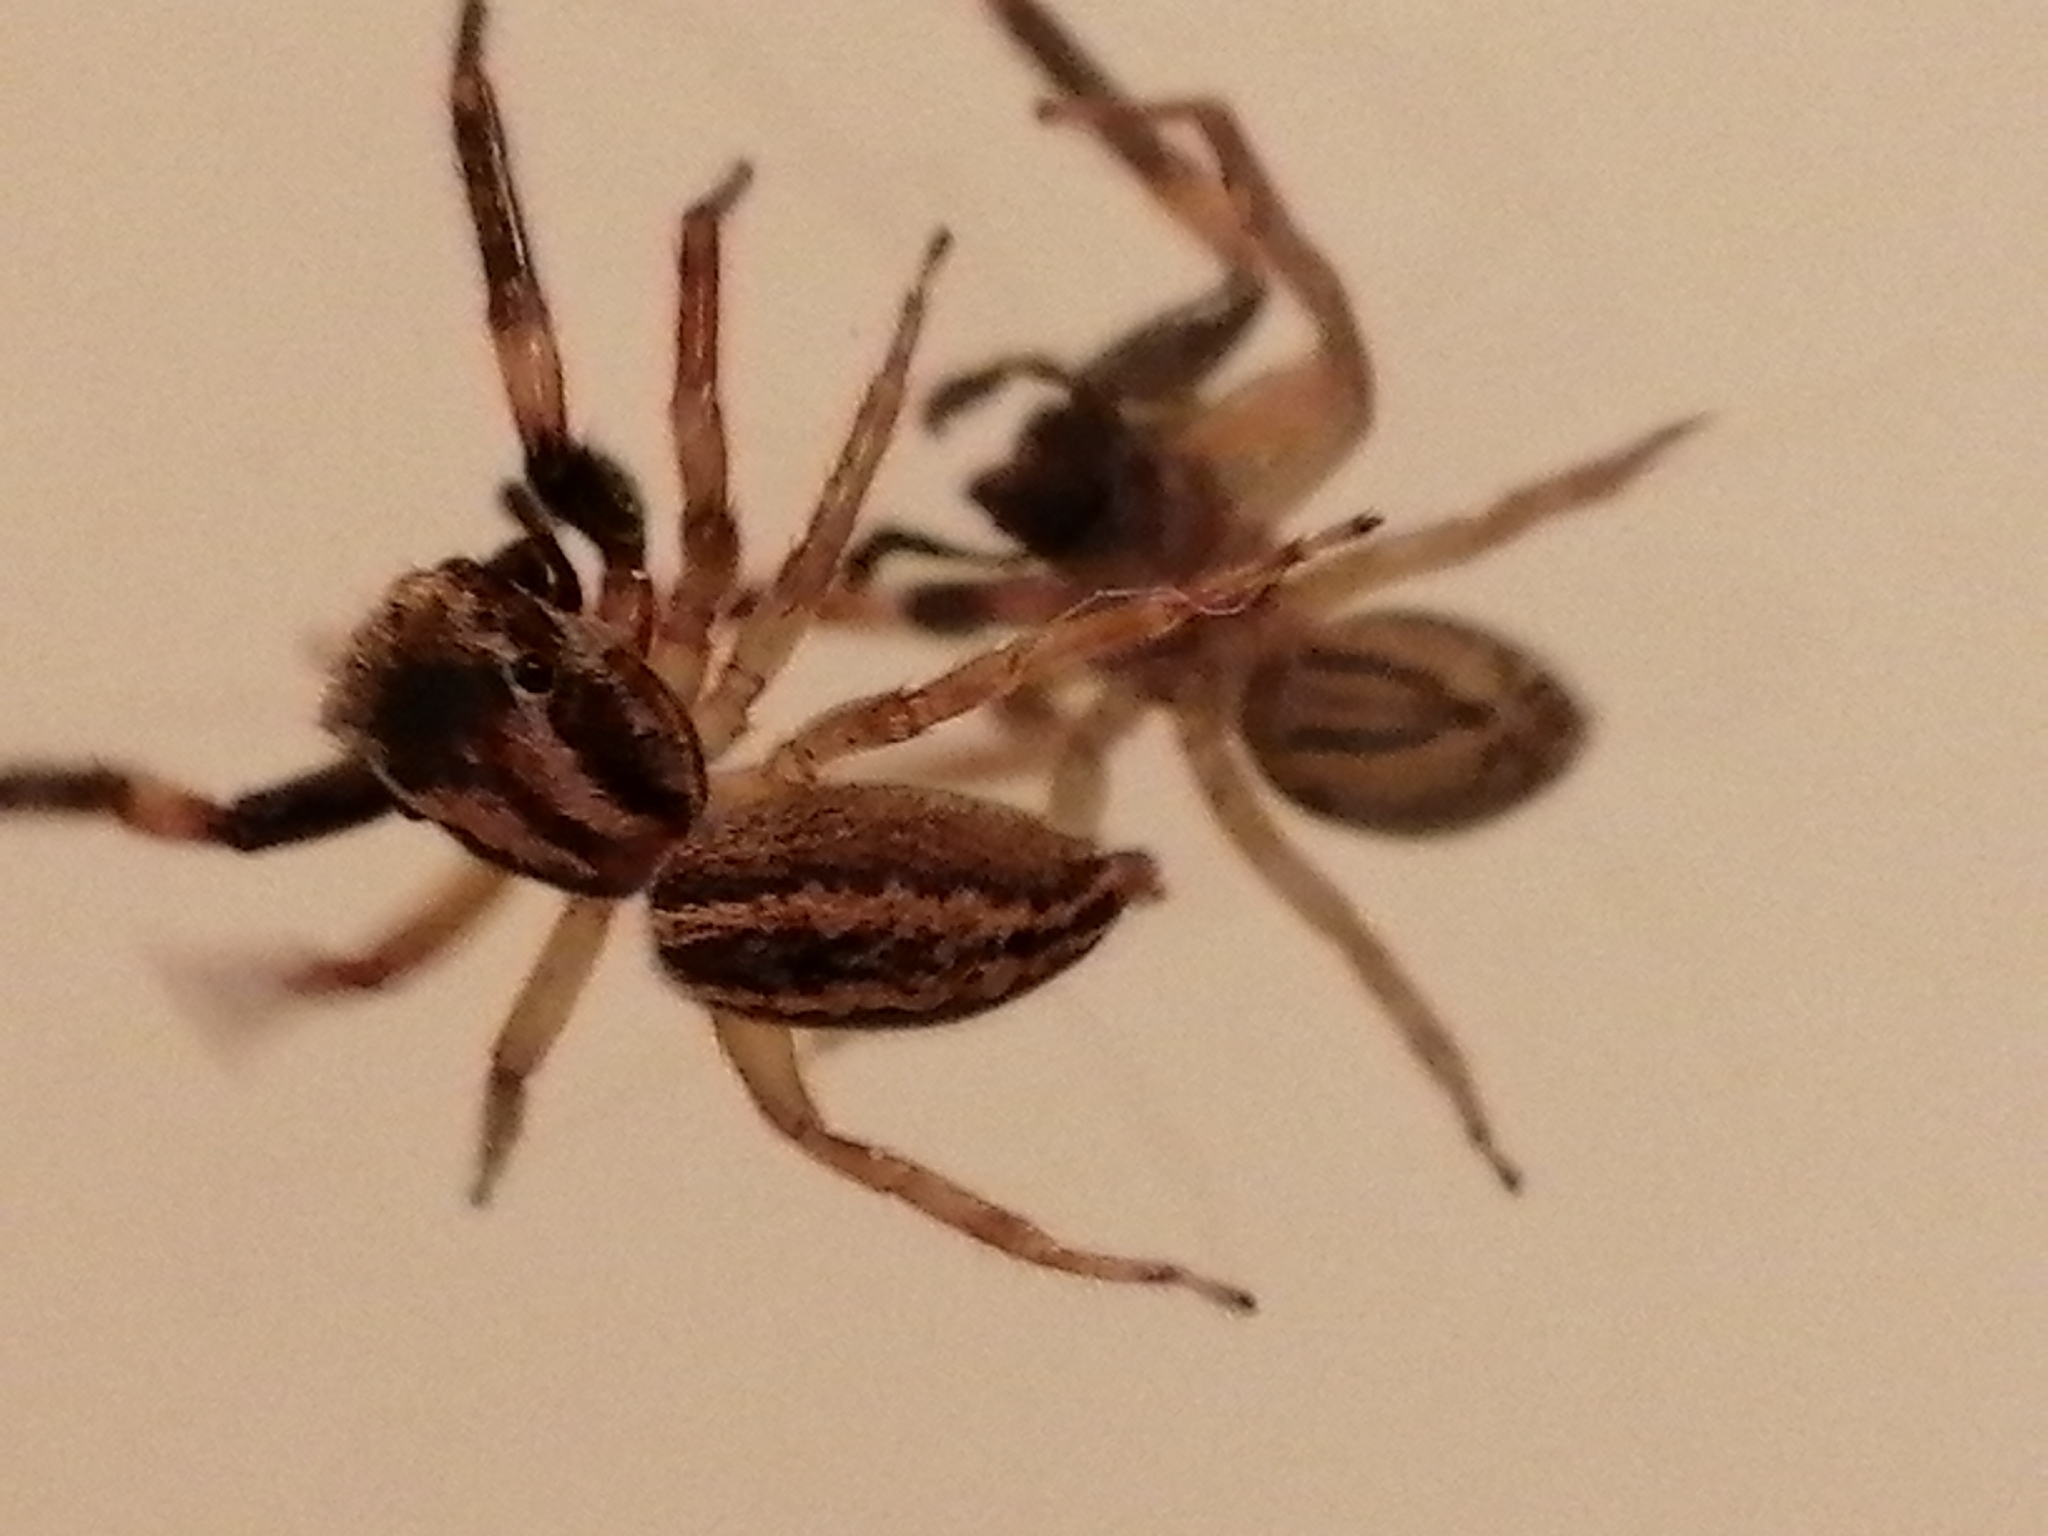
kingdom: Animalia
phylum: Arthropoda
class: Arachnida
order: Araneae
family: Salticidae
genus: Trite
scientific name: Trite auricoma
